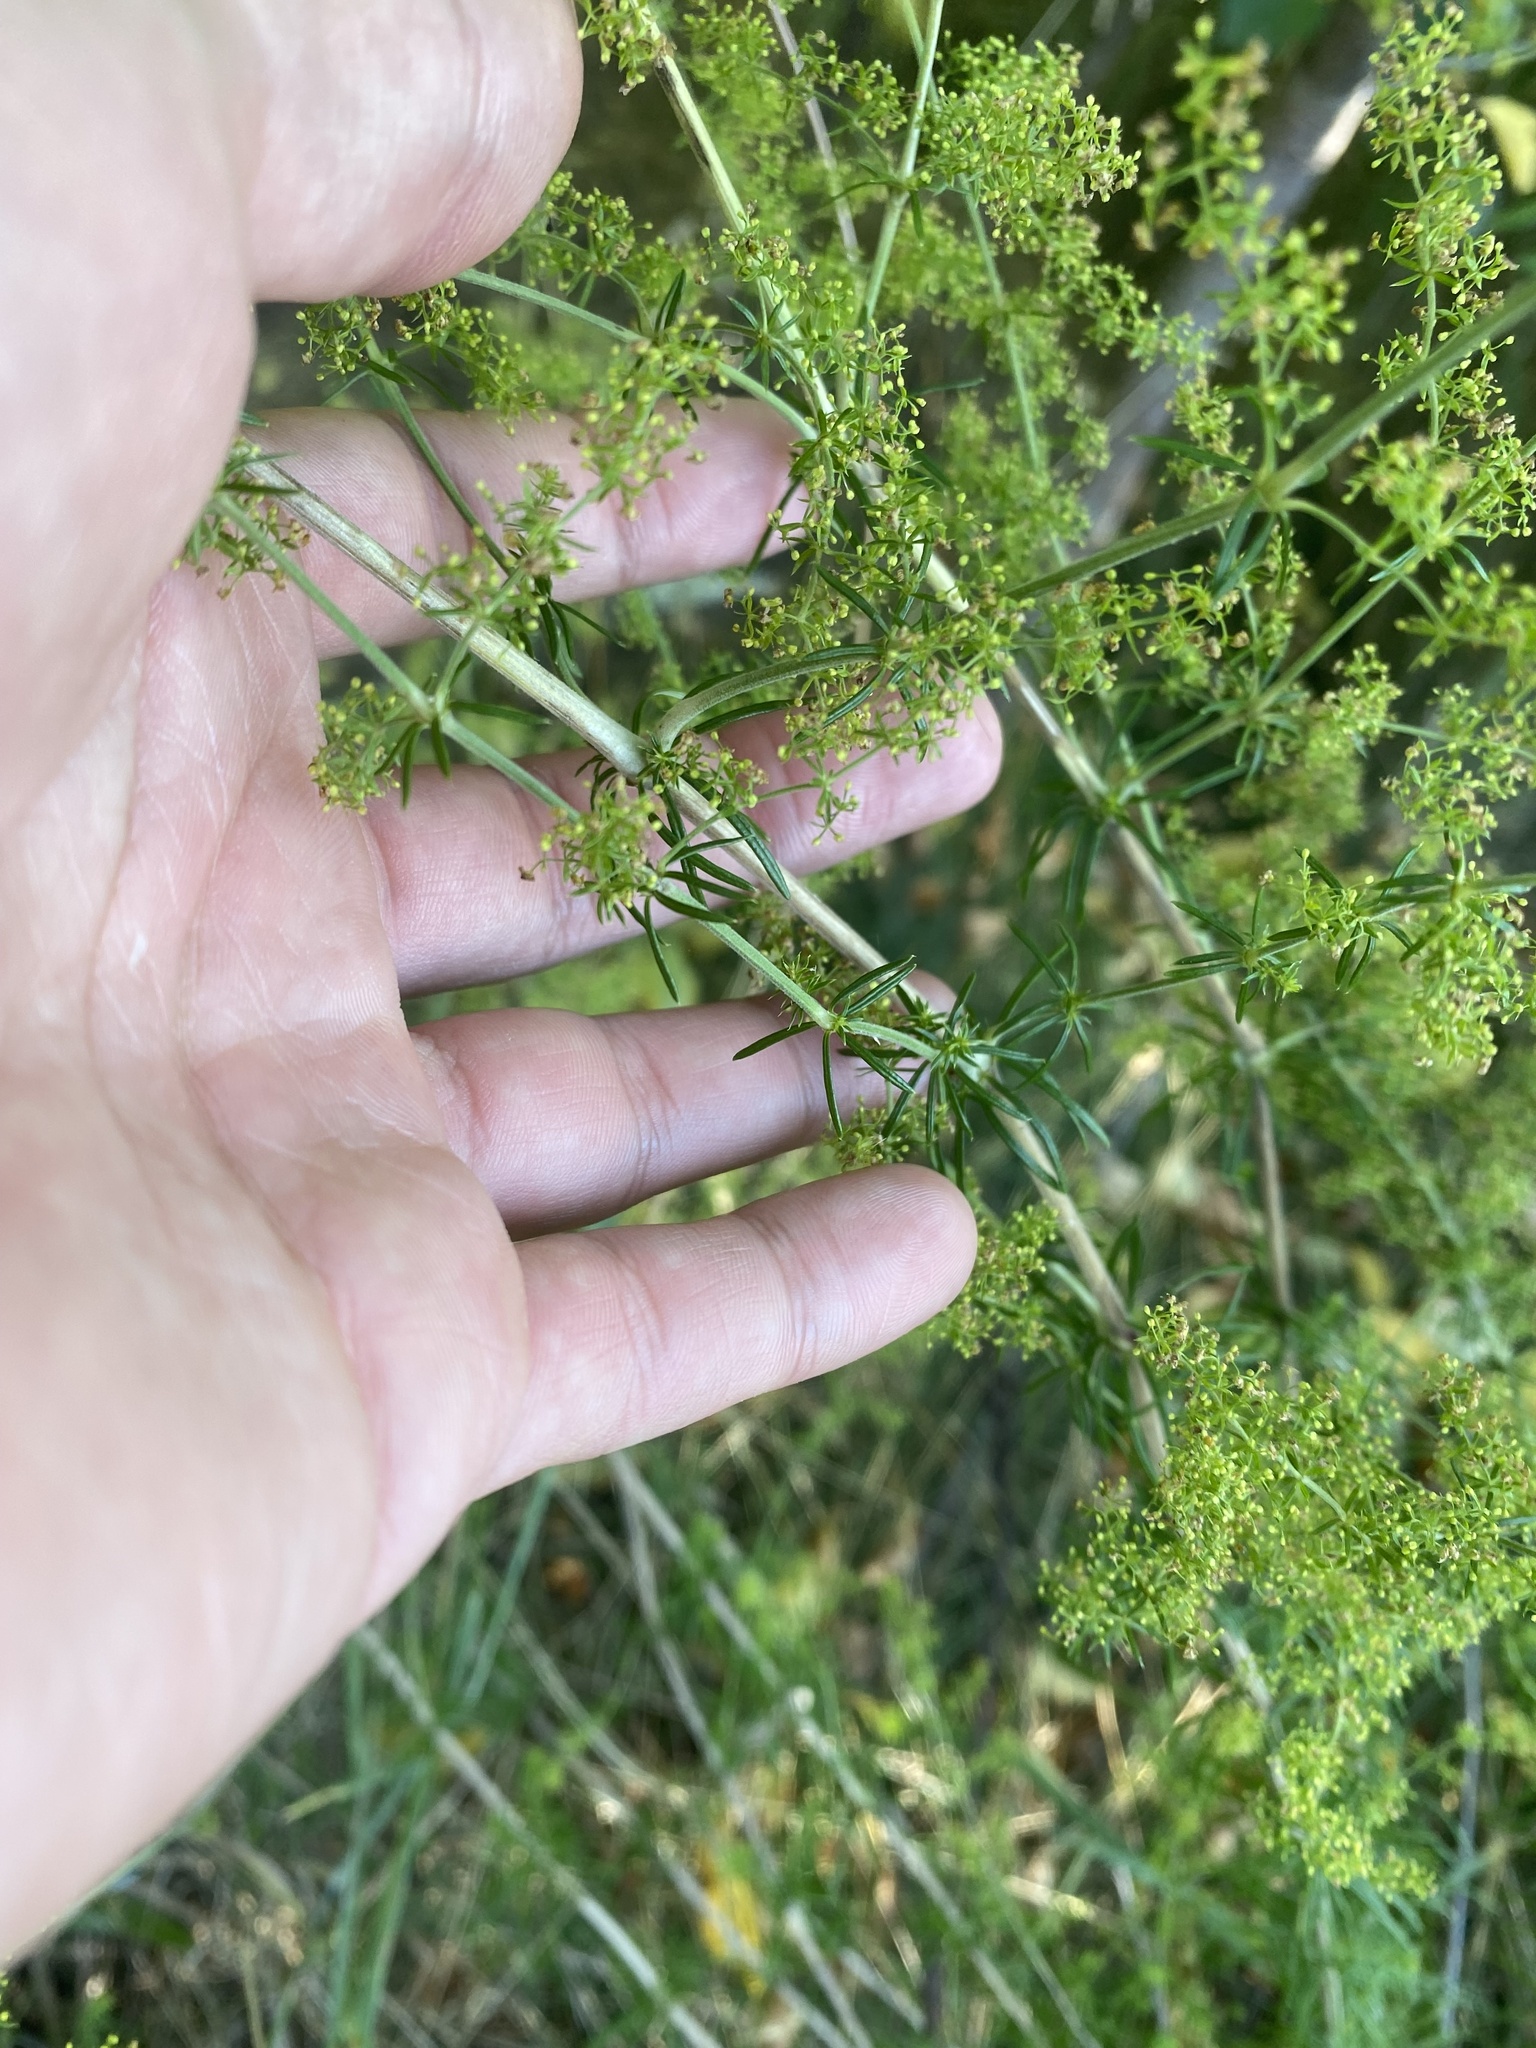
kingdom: Plantae
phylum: Tracheophyta
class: Magnoliopsida
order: Gentianales
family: Rubiaceae
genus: Galium
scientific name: Galium verum
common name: Lady's bedstraw
